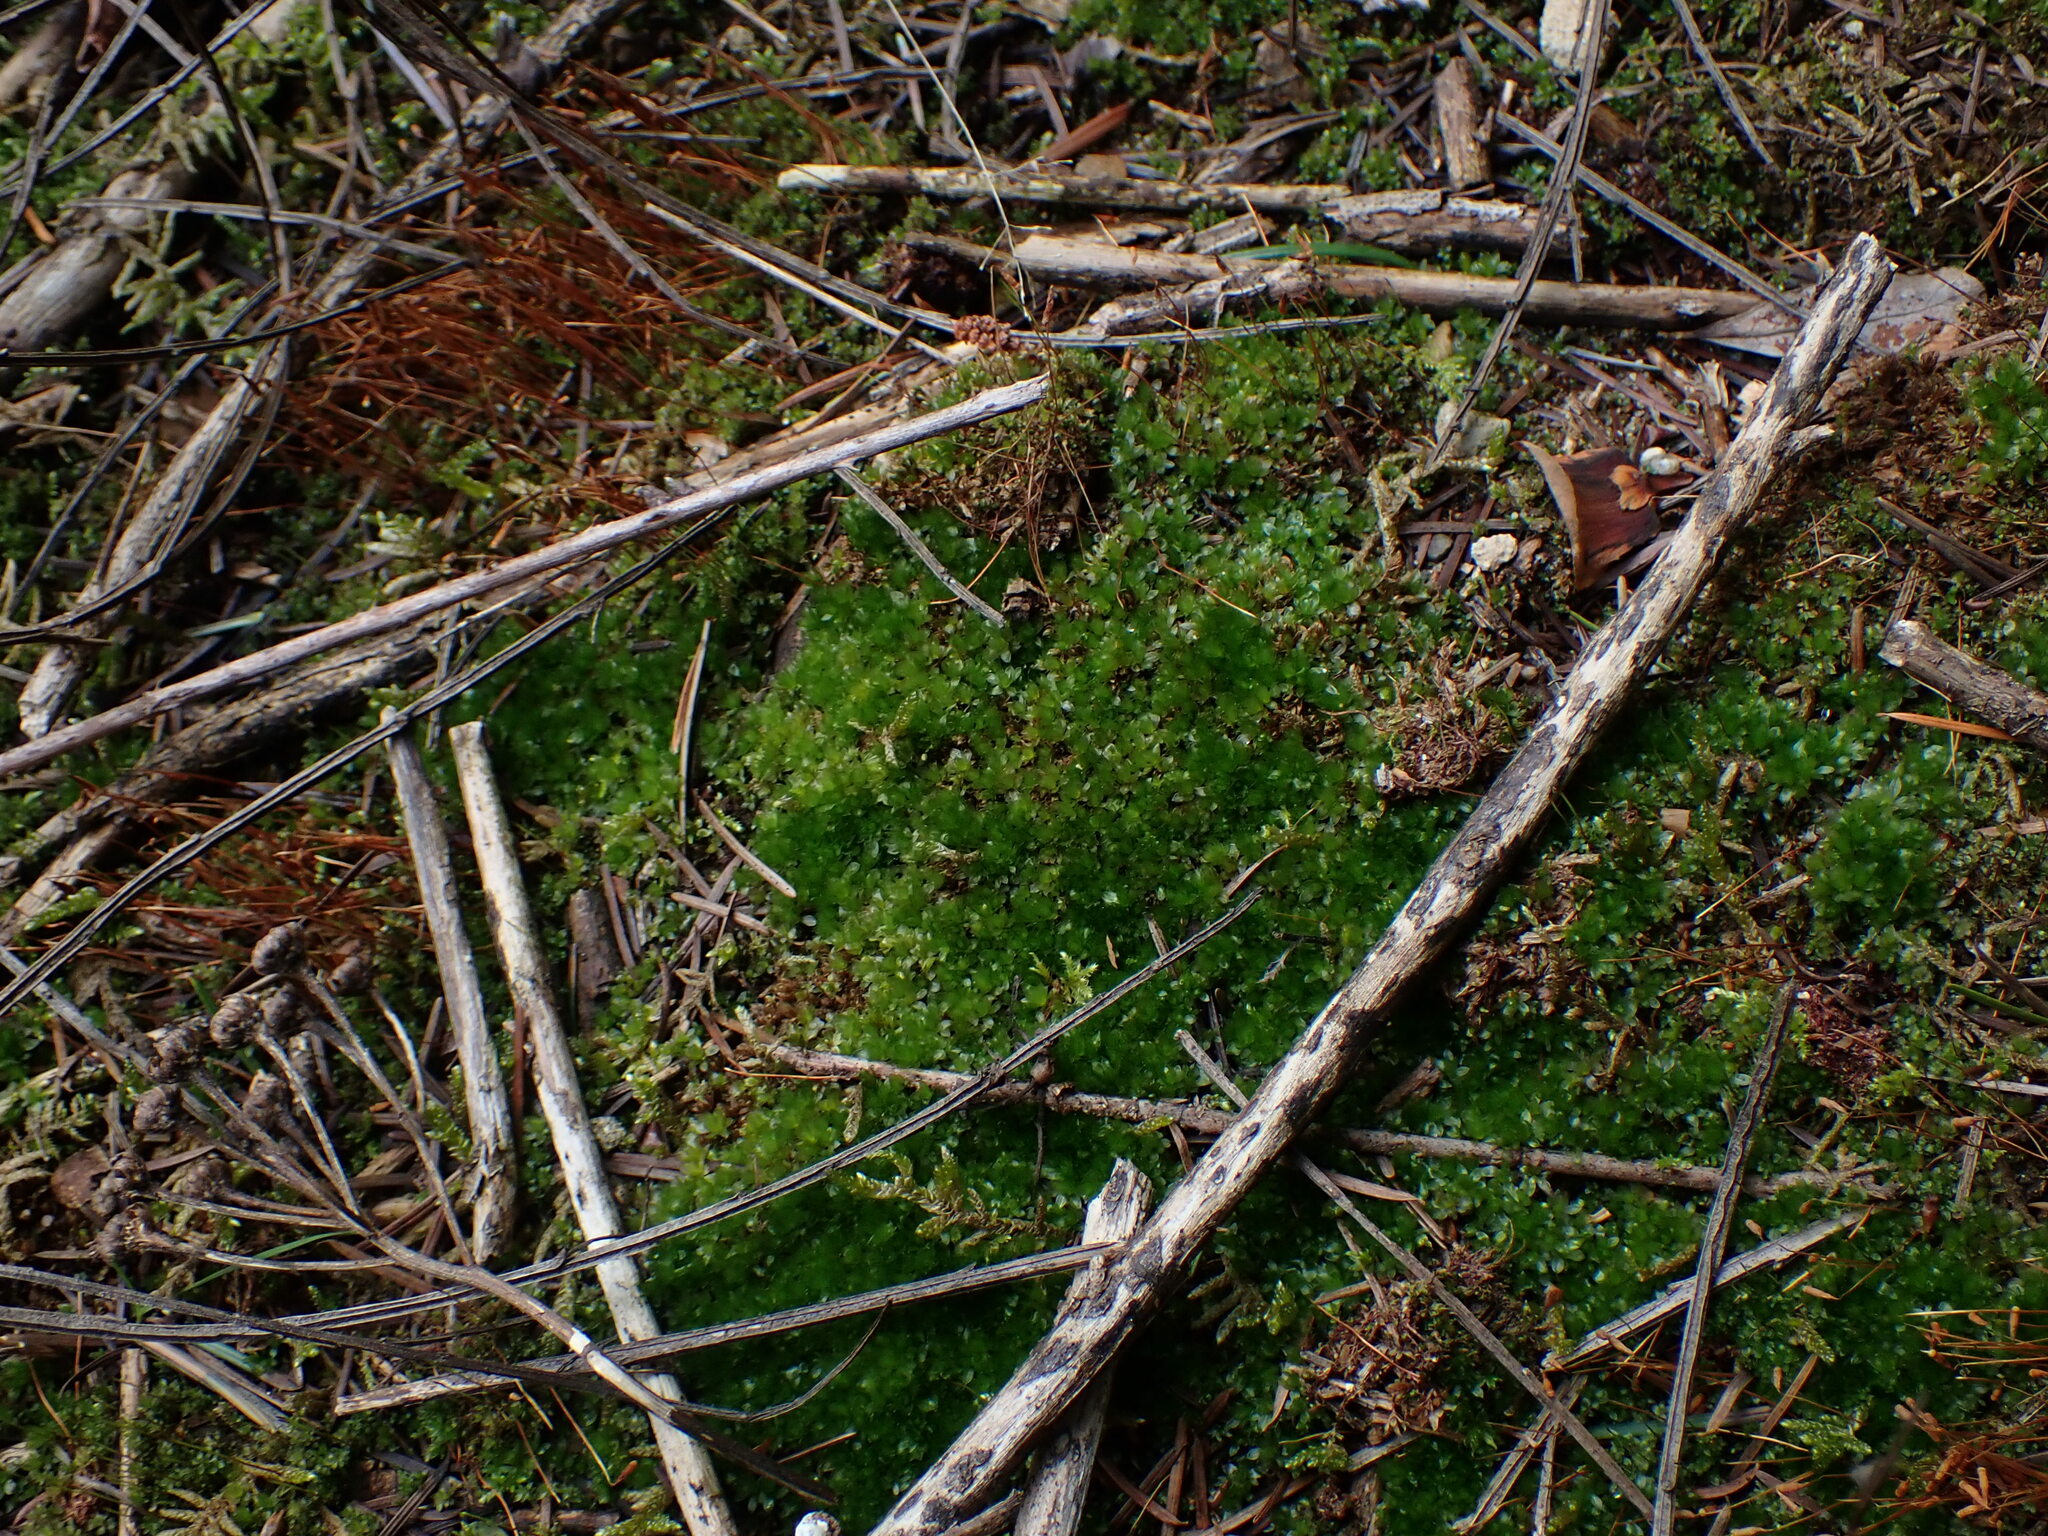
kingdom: Plantae
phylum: Bryophyta
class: Bryopsida
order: Bryales
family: Bryaceae
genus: Rosulabryum
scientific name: Rosulabryum capillare
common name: Capillary thread-moss
